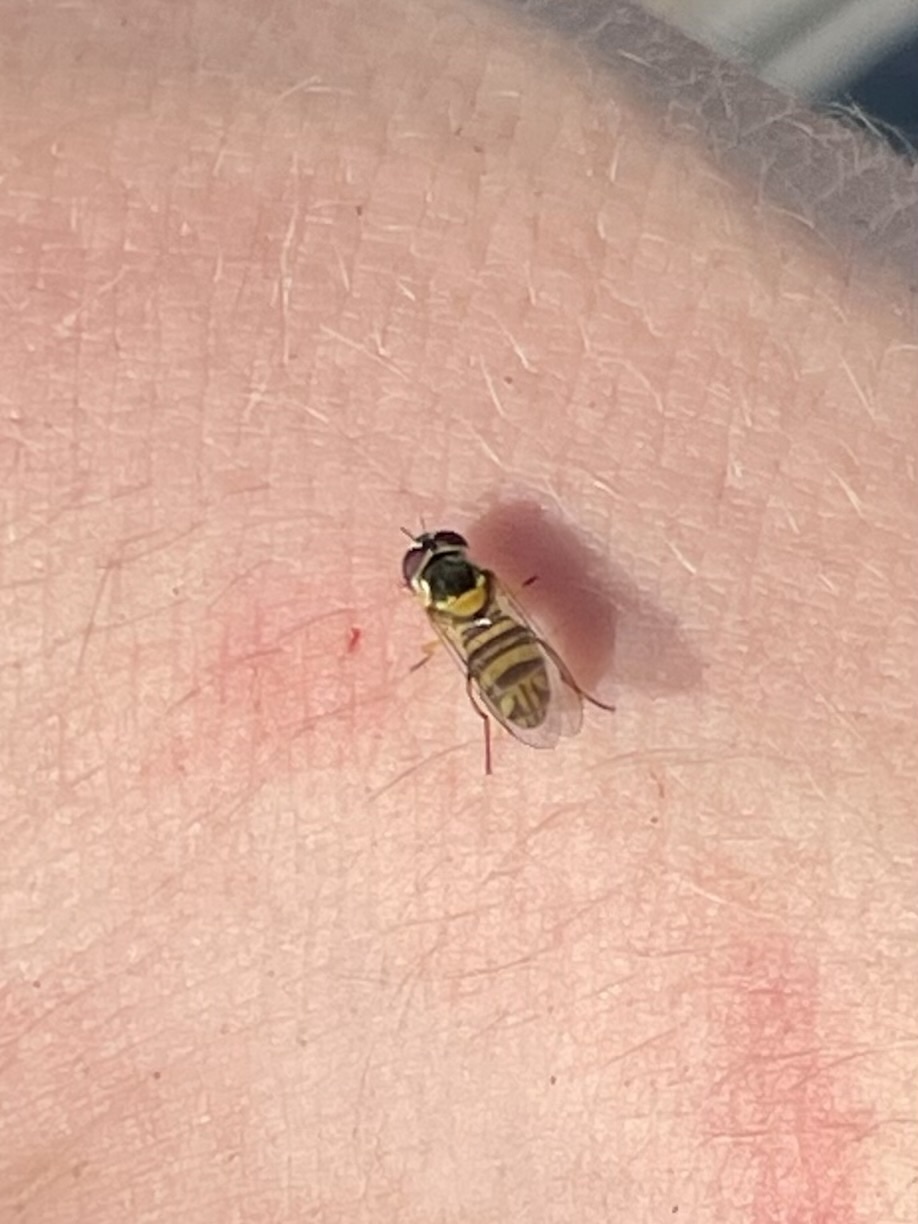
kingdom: Animalia
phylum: Arthropoda
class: Insecta
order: Diptera
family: Syrphidae
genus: Allograpta
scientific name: Allograpta obliqua
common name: Common oblique syrphid
